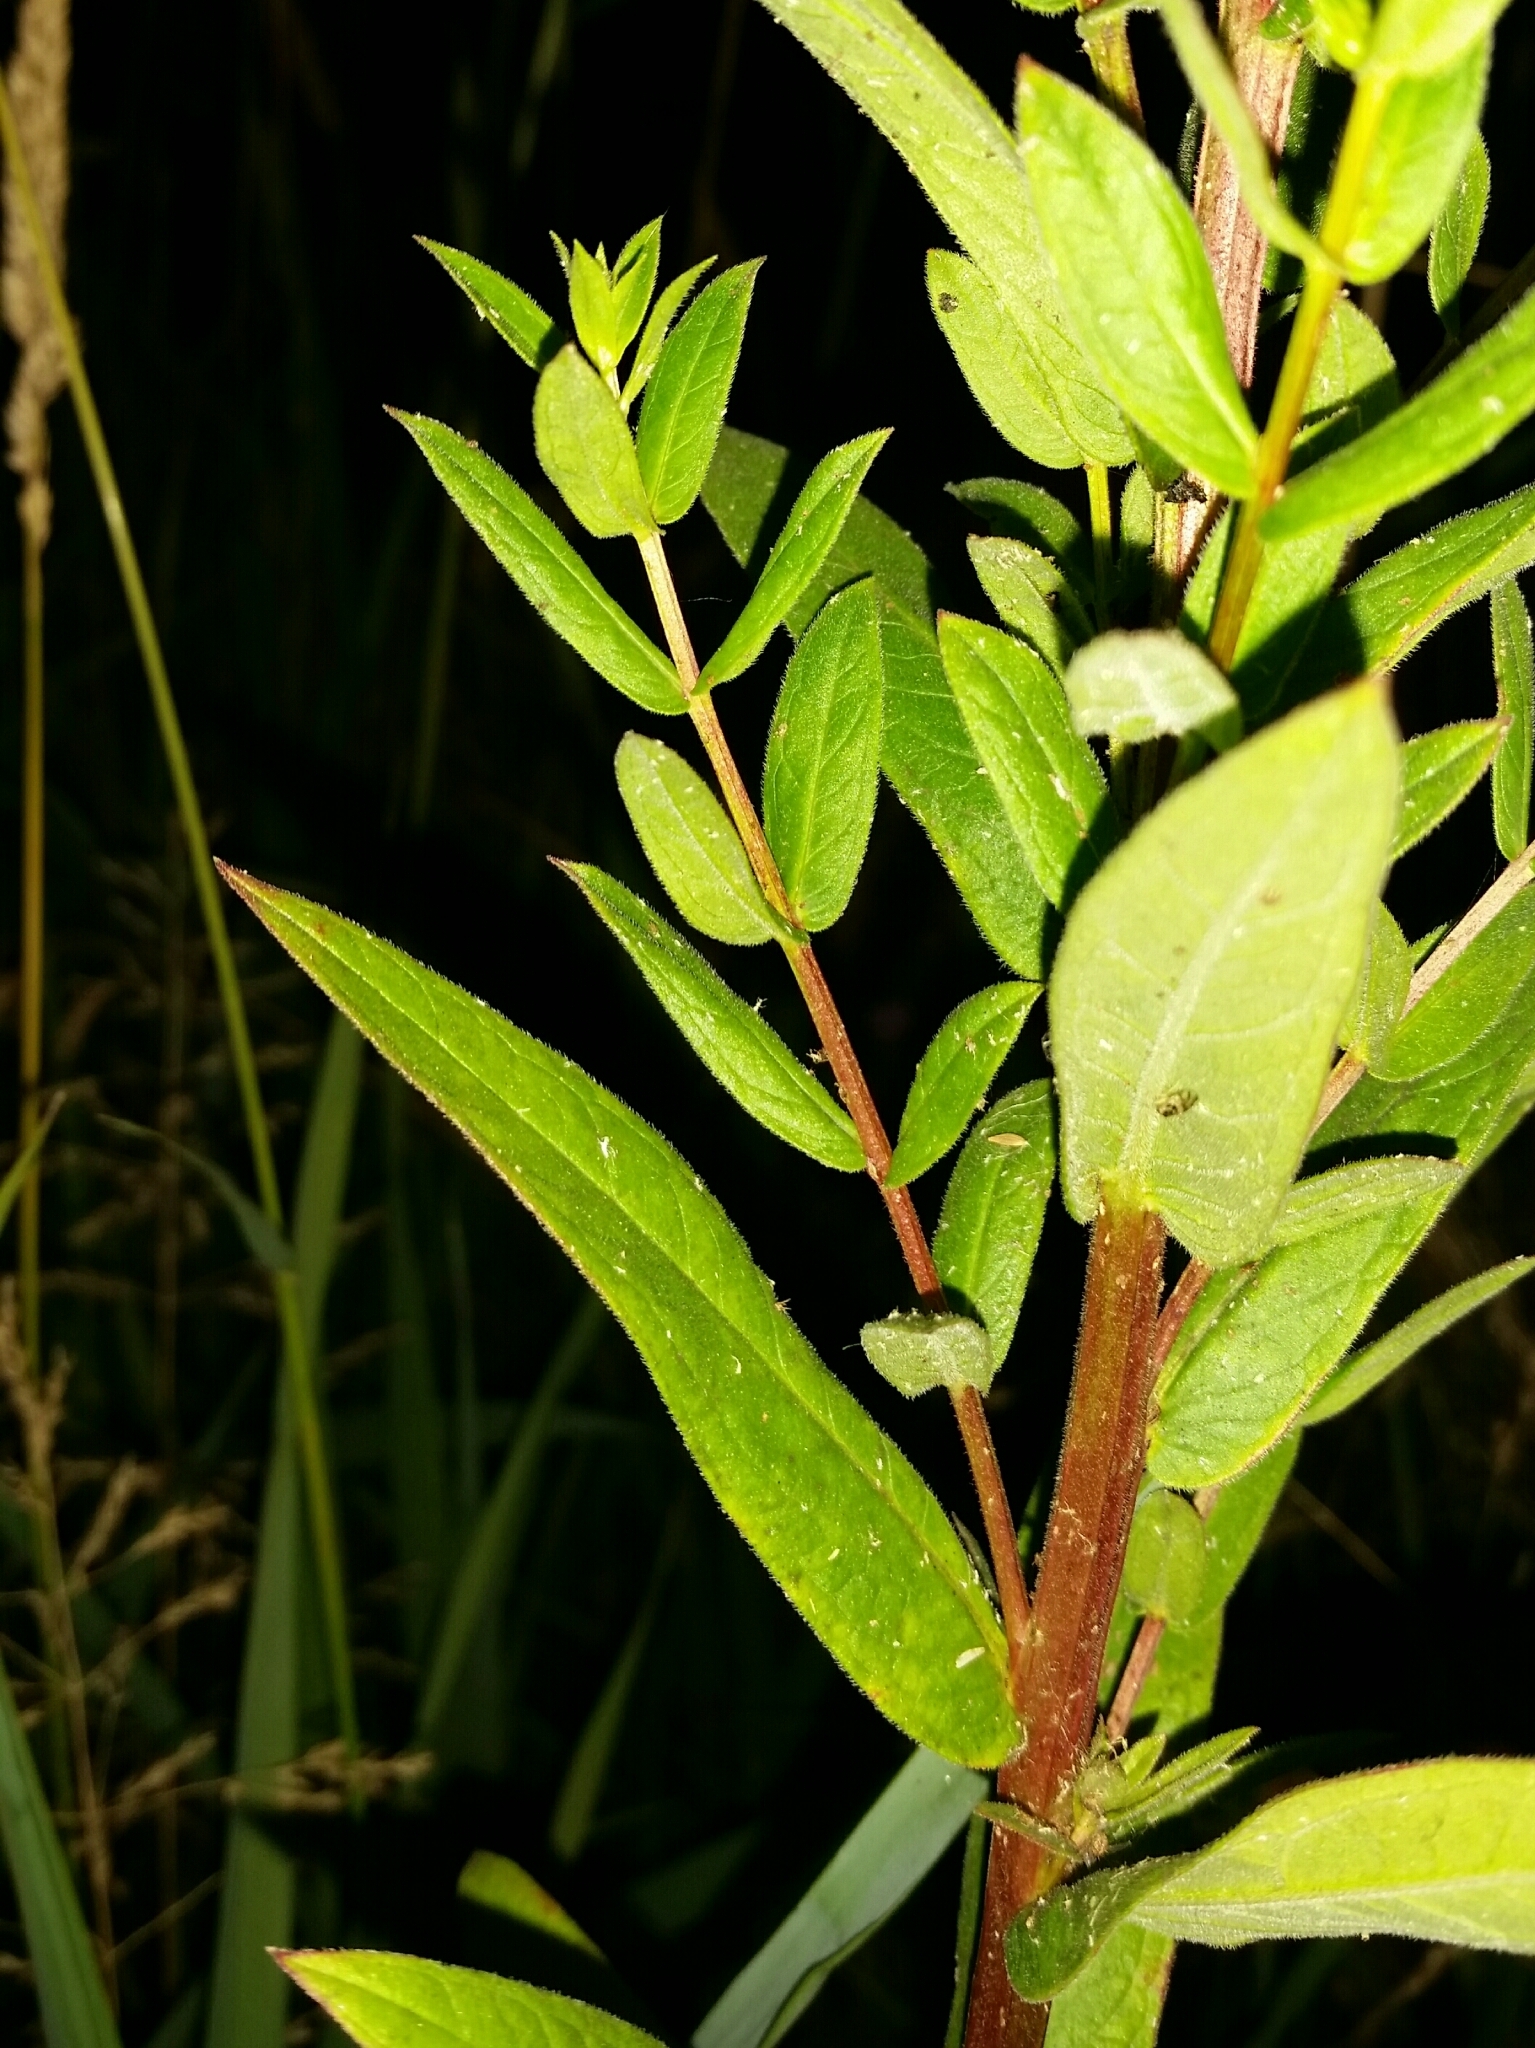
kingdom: Plantae
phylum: Tracheophyta
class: Magnoliopsida
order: Myrtales
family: Lythraceae
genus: Lythrum
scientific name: Lythrum salicaria
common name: Purple loosestrife
